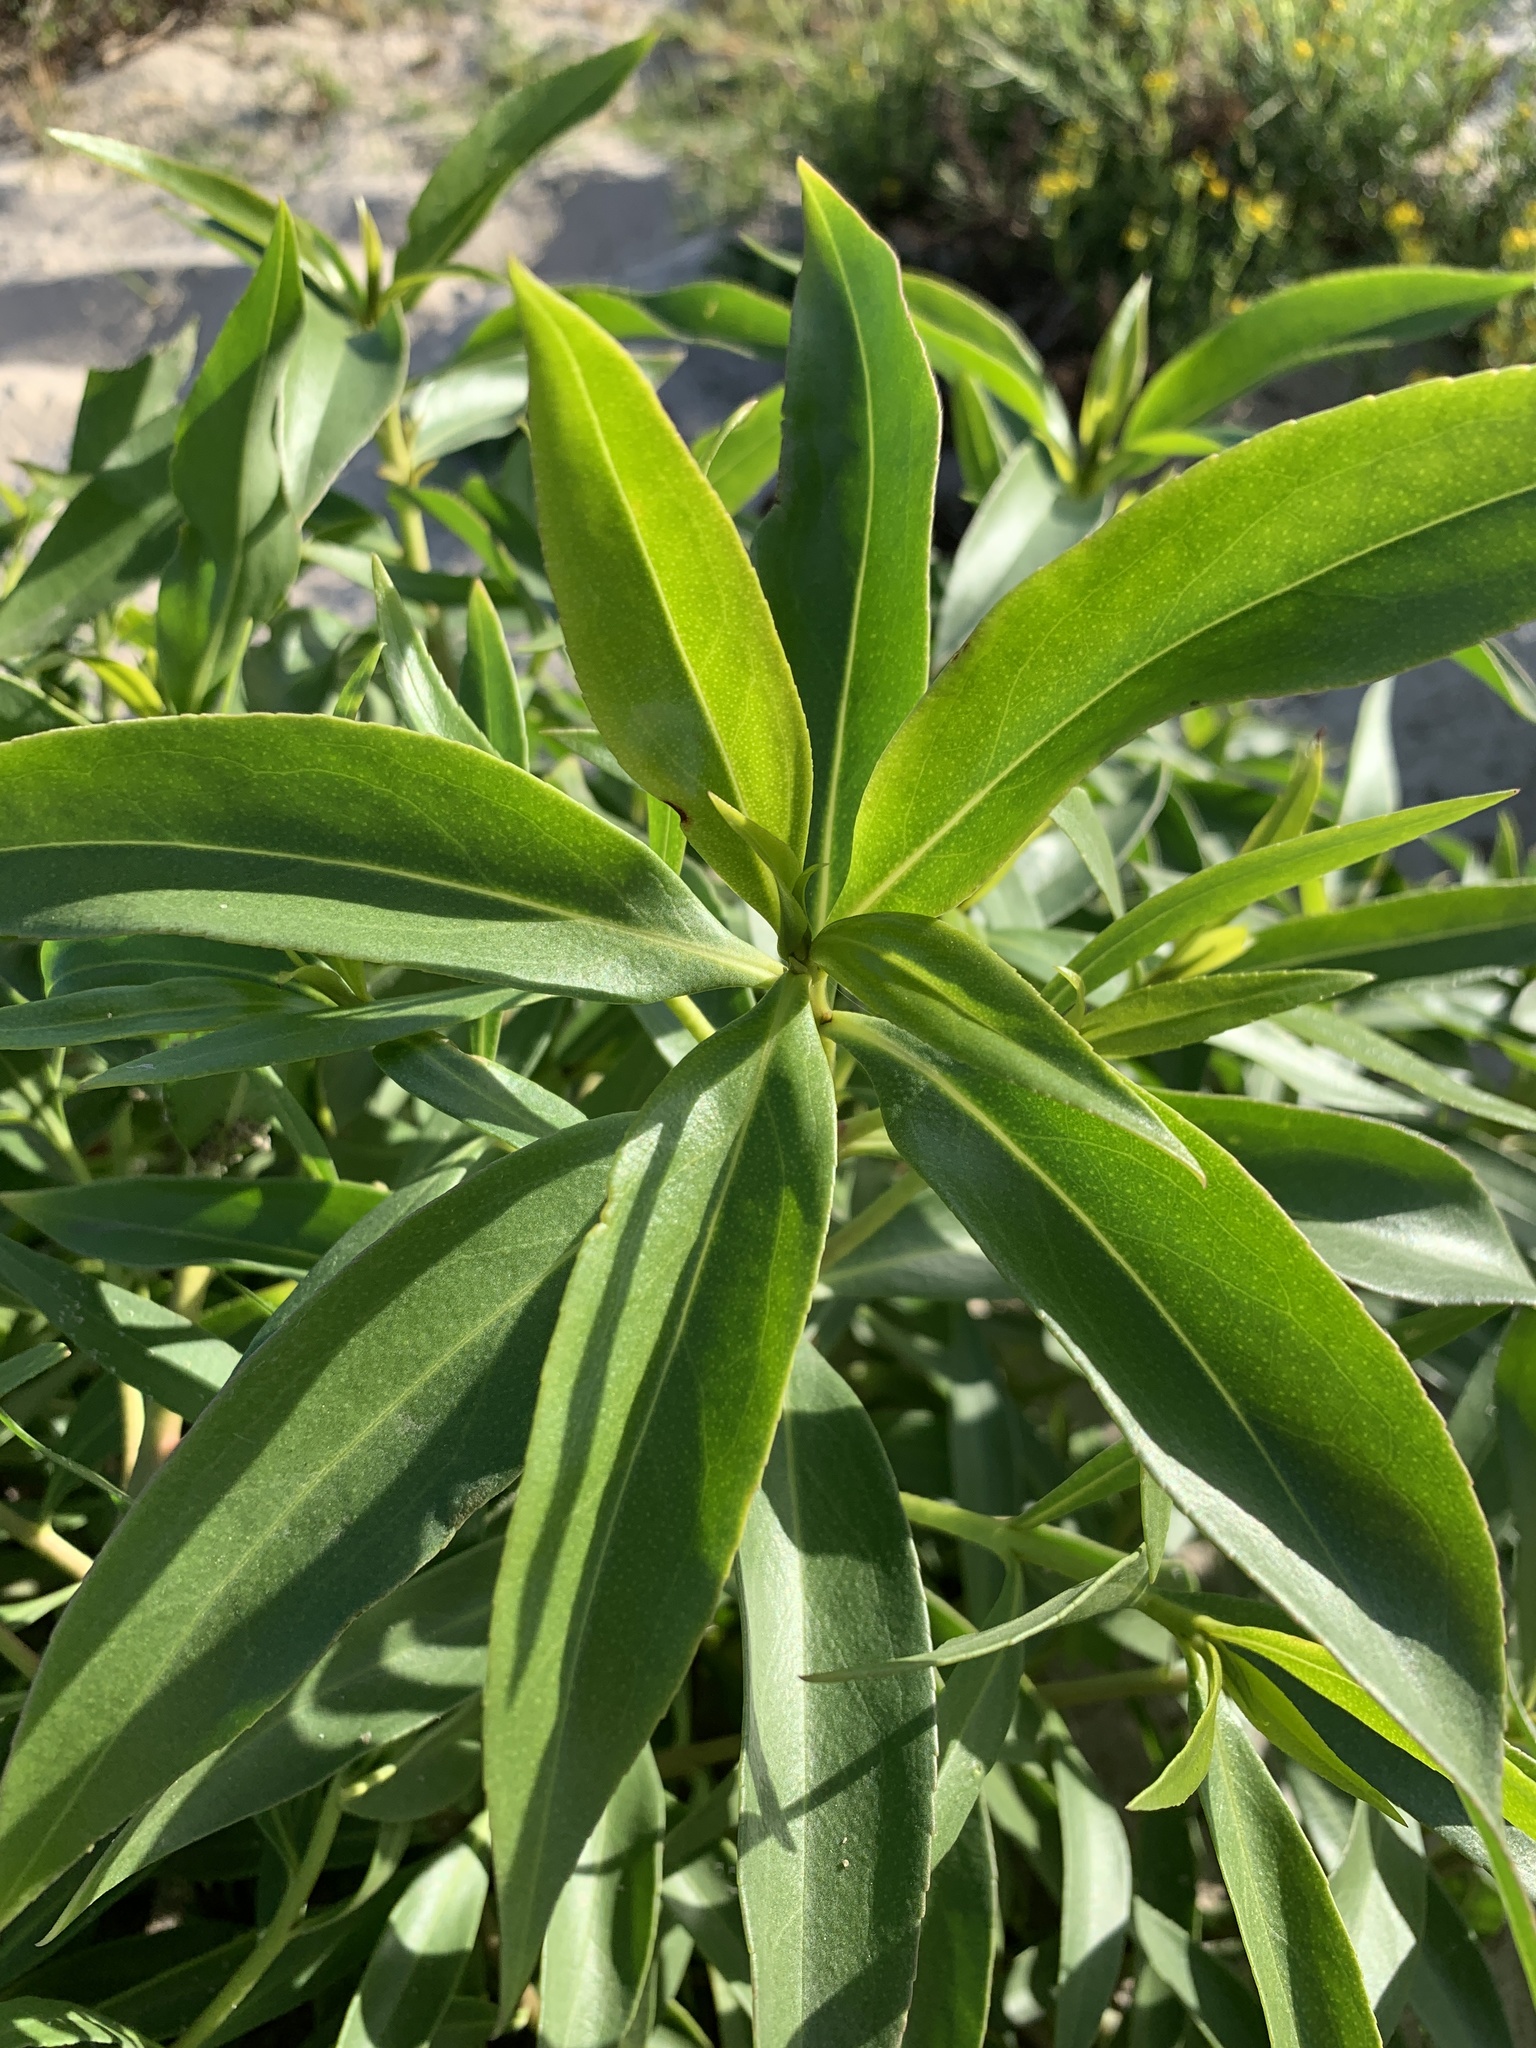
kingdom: Plantae
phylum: Tracheophyta
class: Magnoliopsida
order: Lamiales
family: Scrophulariaceae
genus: Myoporum
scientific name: Myoporum laetum
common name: Ngaio tree
